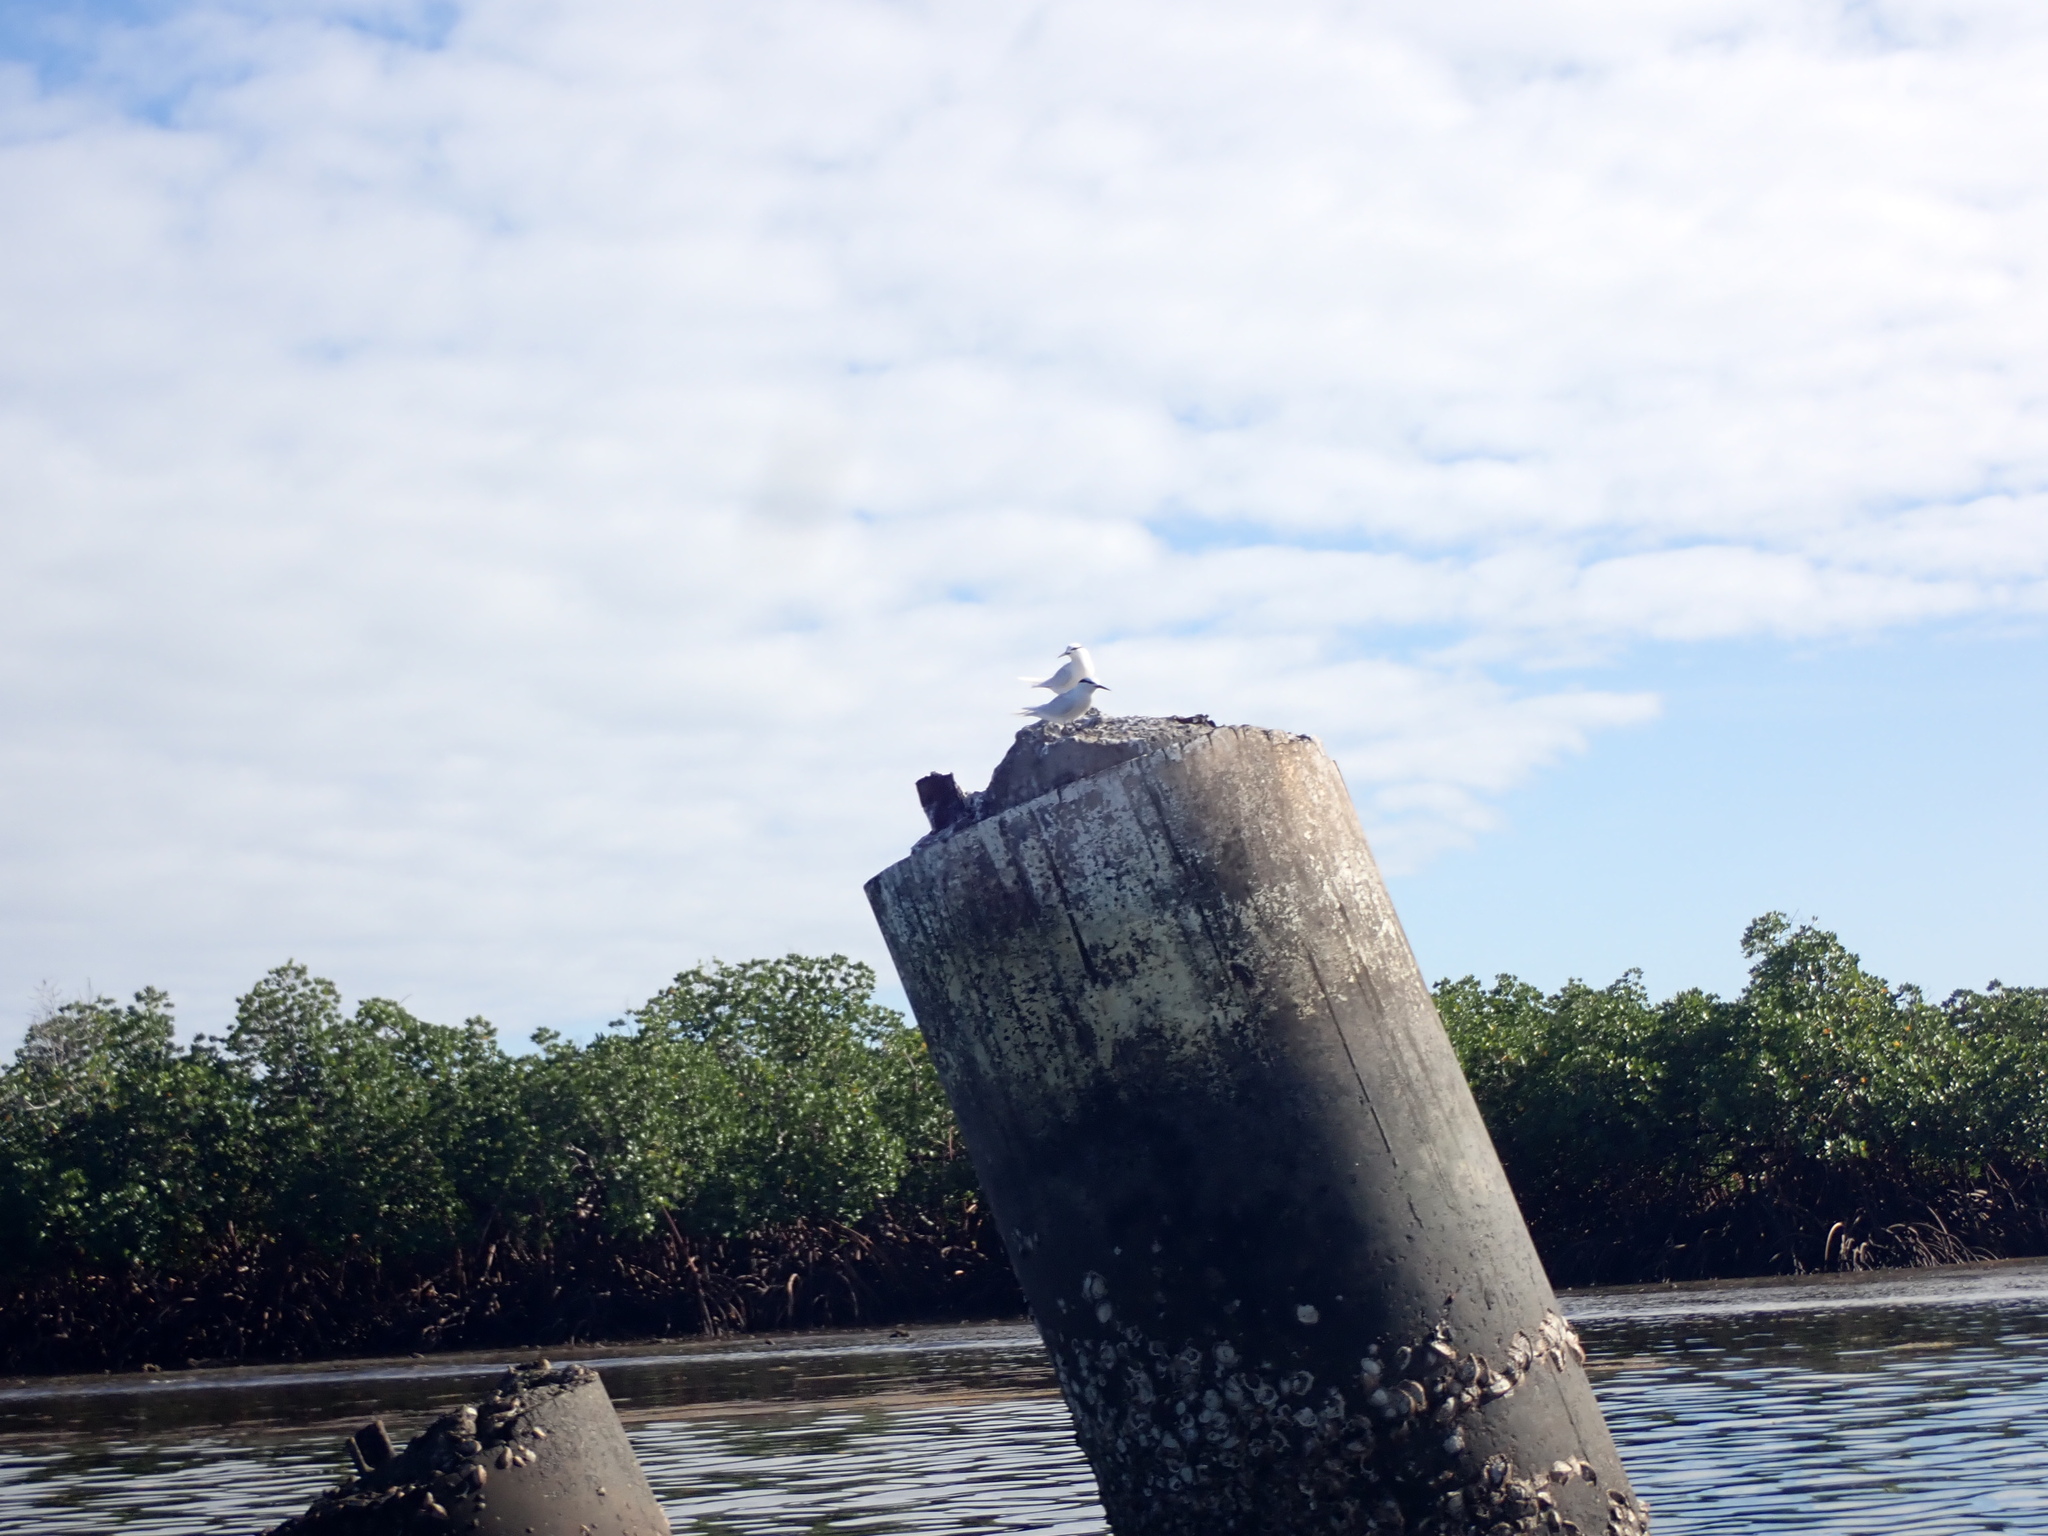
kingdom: Animalia
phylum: Chordata
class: Aves
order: Charadriiformes
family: Laridae
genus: Sterna
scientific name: Sterna sumatrana
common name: Black-naped tern
